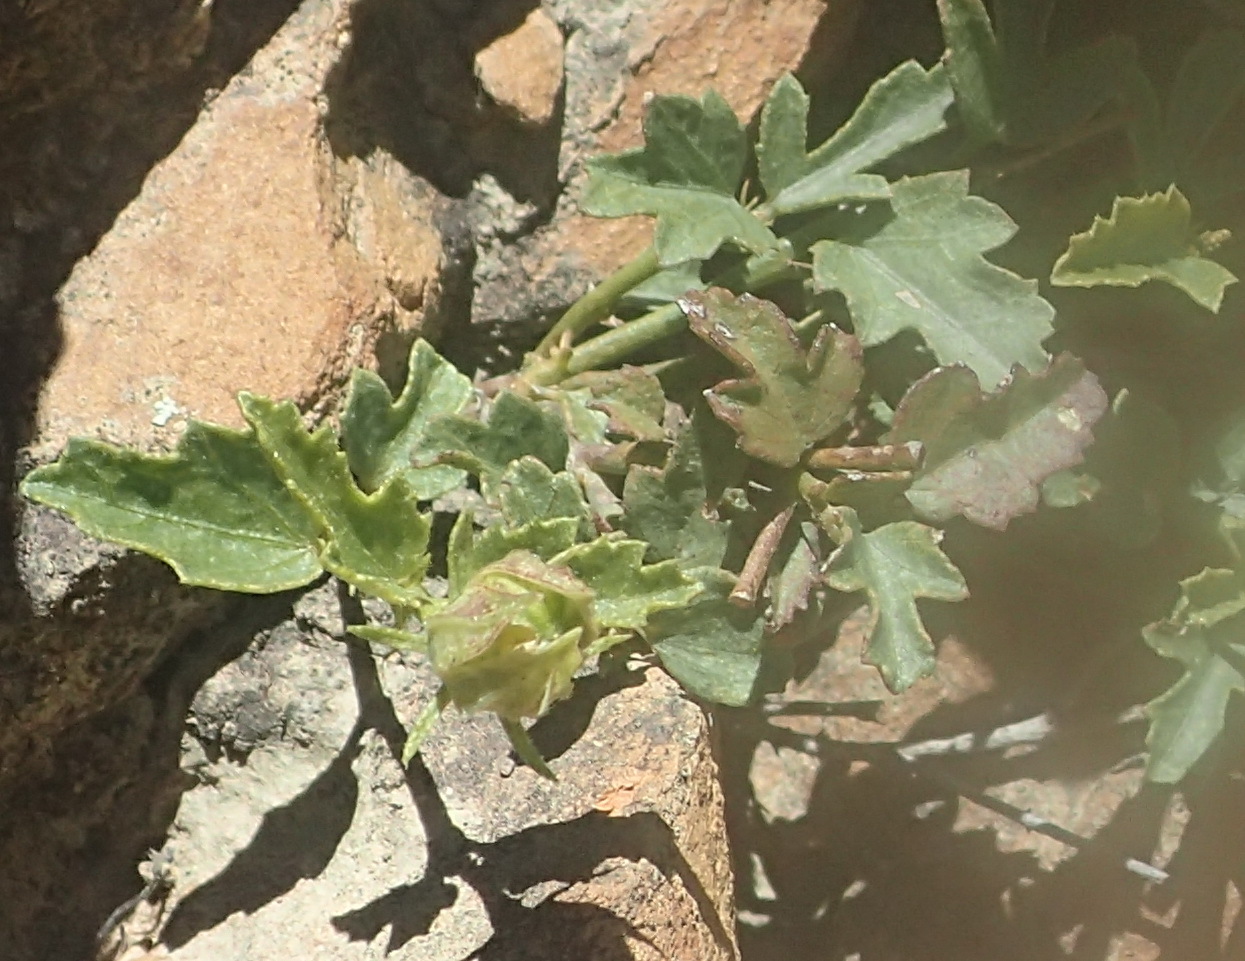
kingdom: Plantae
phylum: Tracheophyta
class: Magnoliopsida
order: Malvales
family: Malvaceae
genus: Hibiscus
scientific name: Hibiscus pusillus
